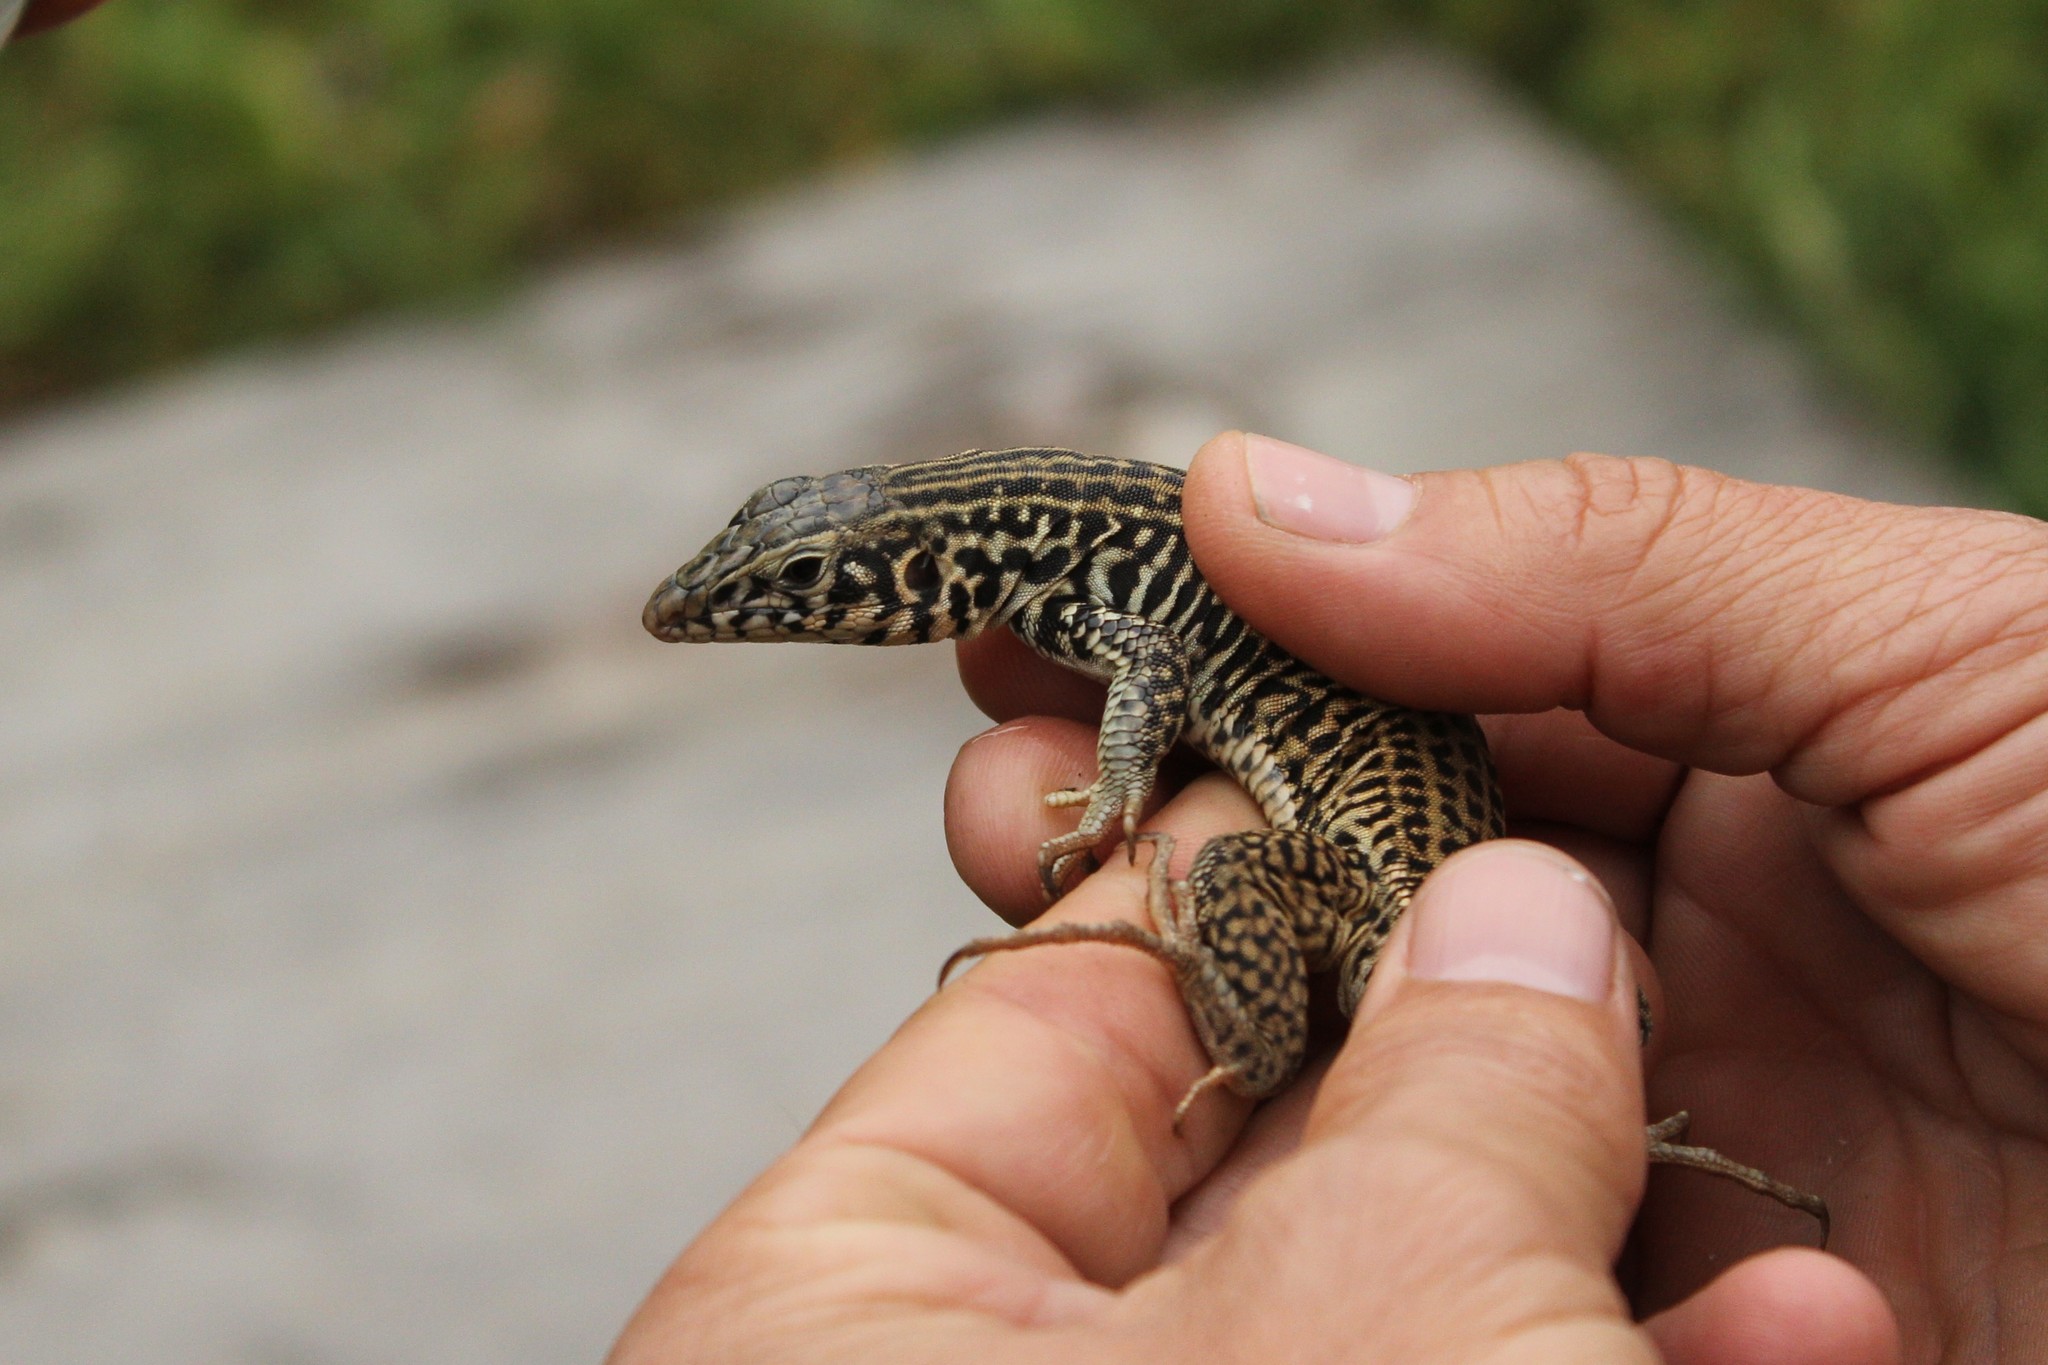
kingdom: Animalia
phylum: Chordata
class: Squamata
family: Teiidae
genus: Aspidoscelis
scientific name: Aspidoscelis tigris
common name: Tiger whiptail
